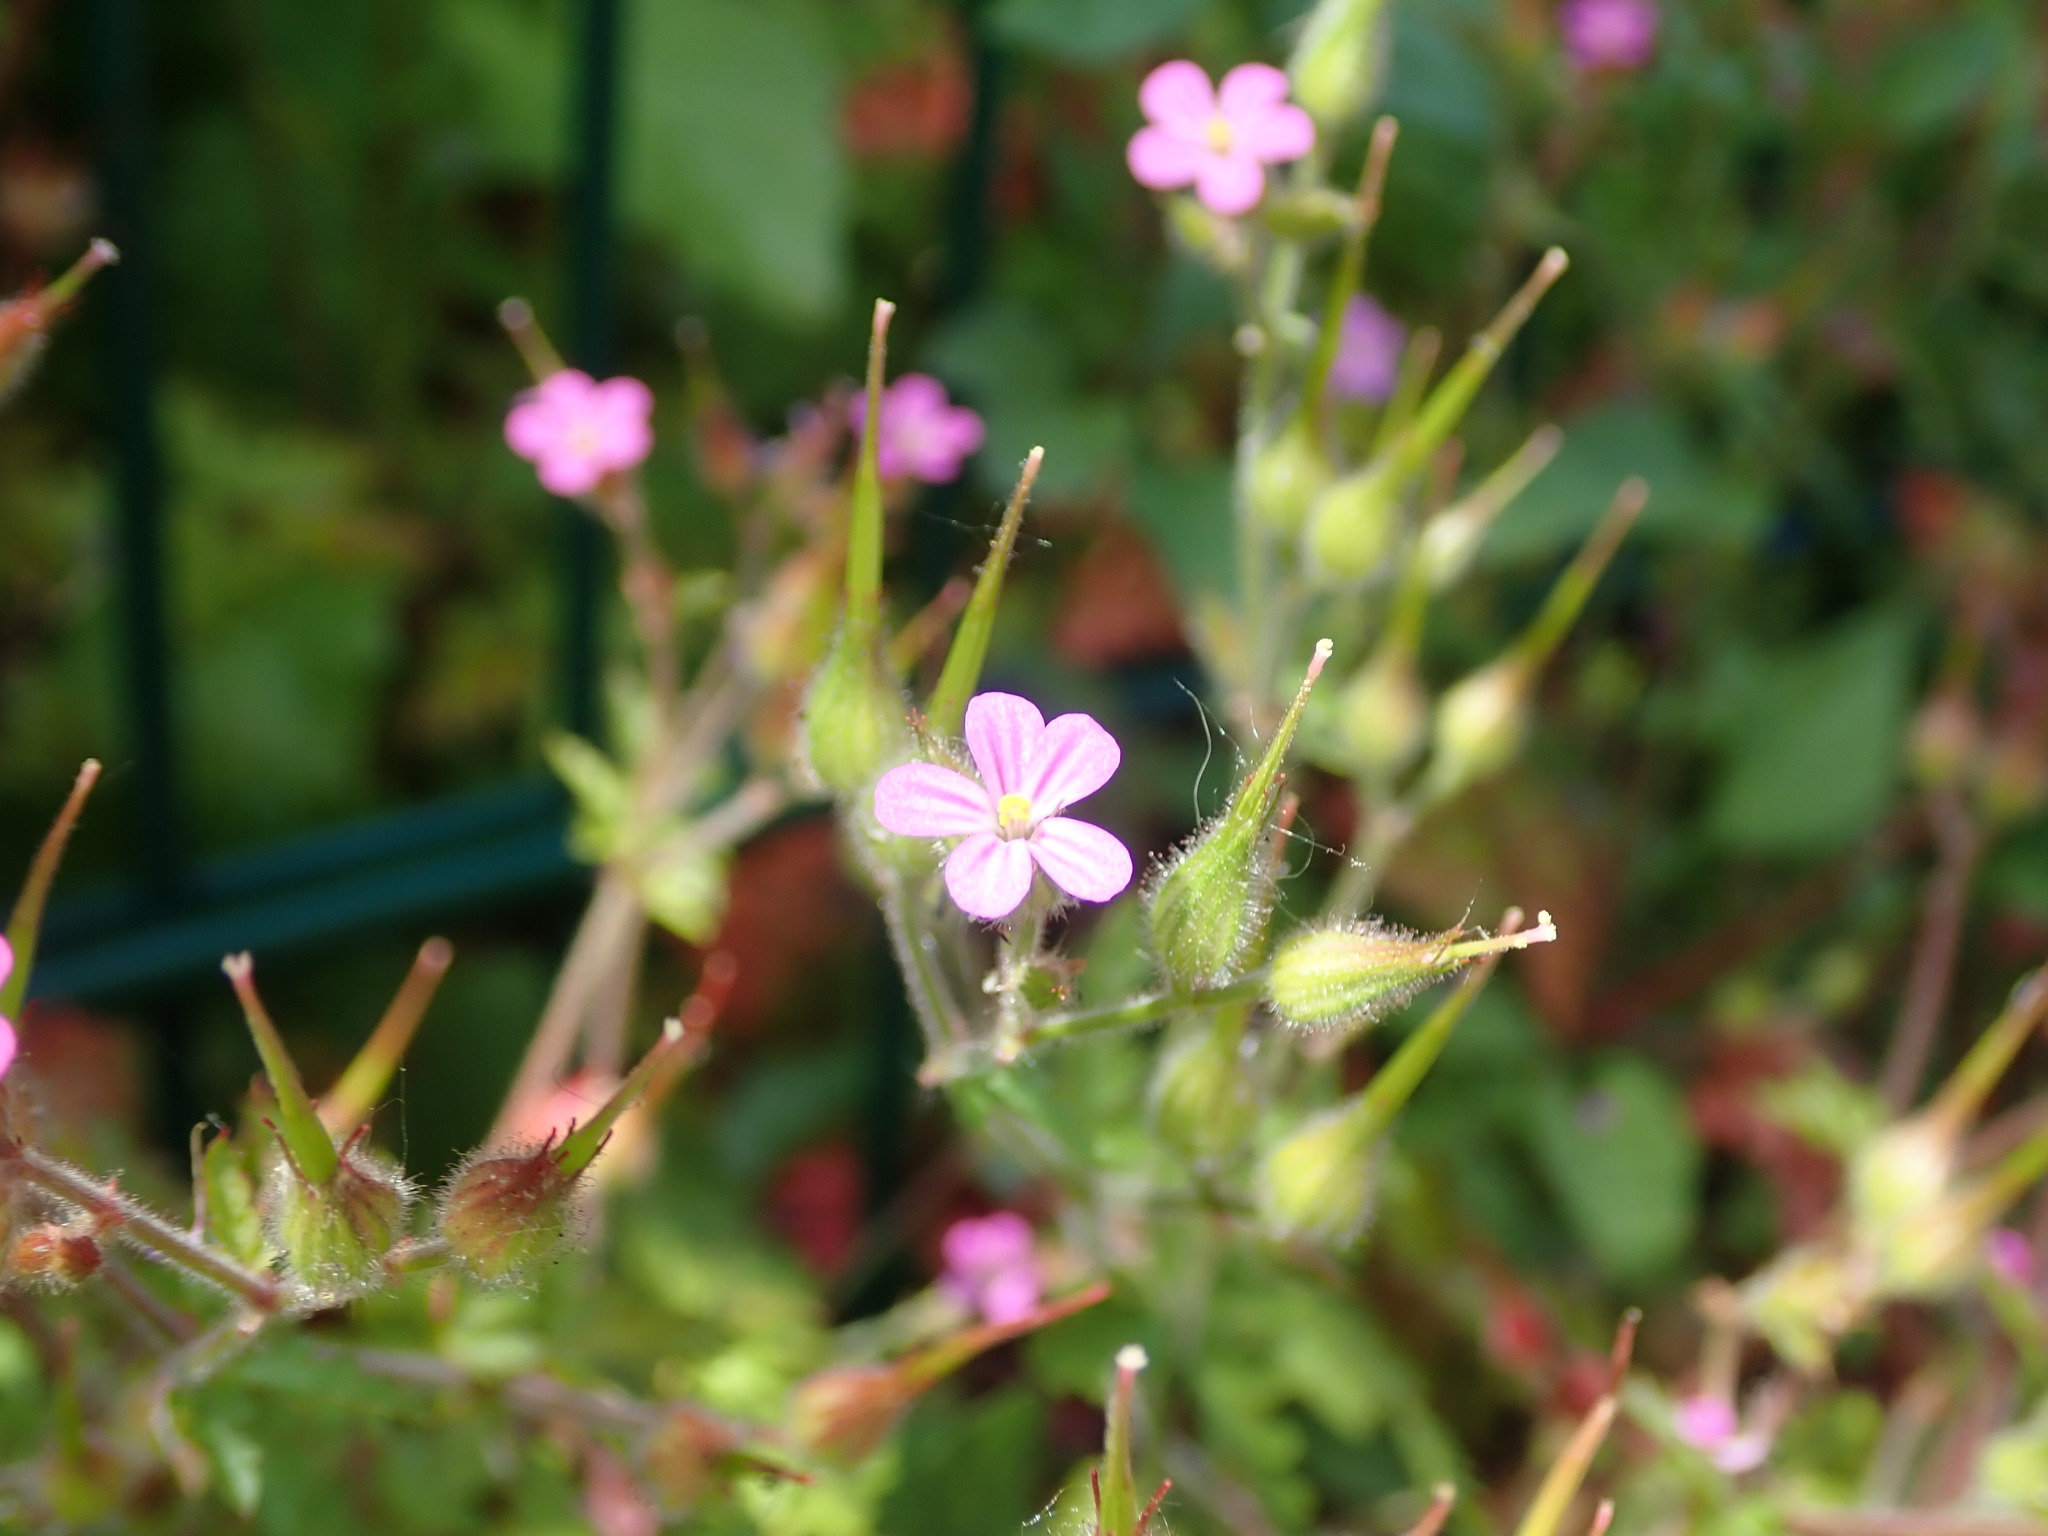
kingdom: Plantae
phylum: Tracheophyta
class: Magnoliopsida
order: Geraniales
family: Geraniaceae
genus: Geranium
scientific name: Geranium purpureum
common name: Little-robin
